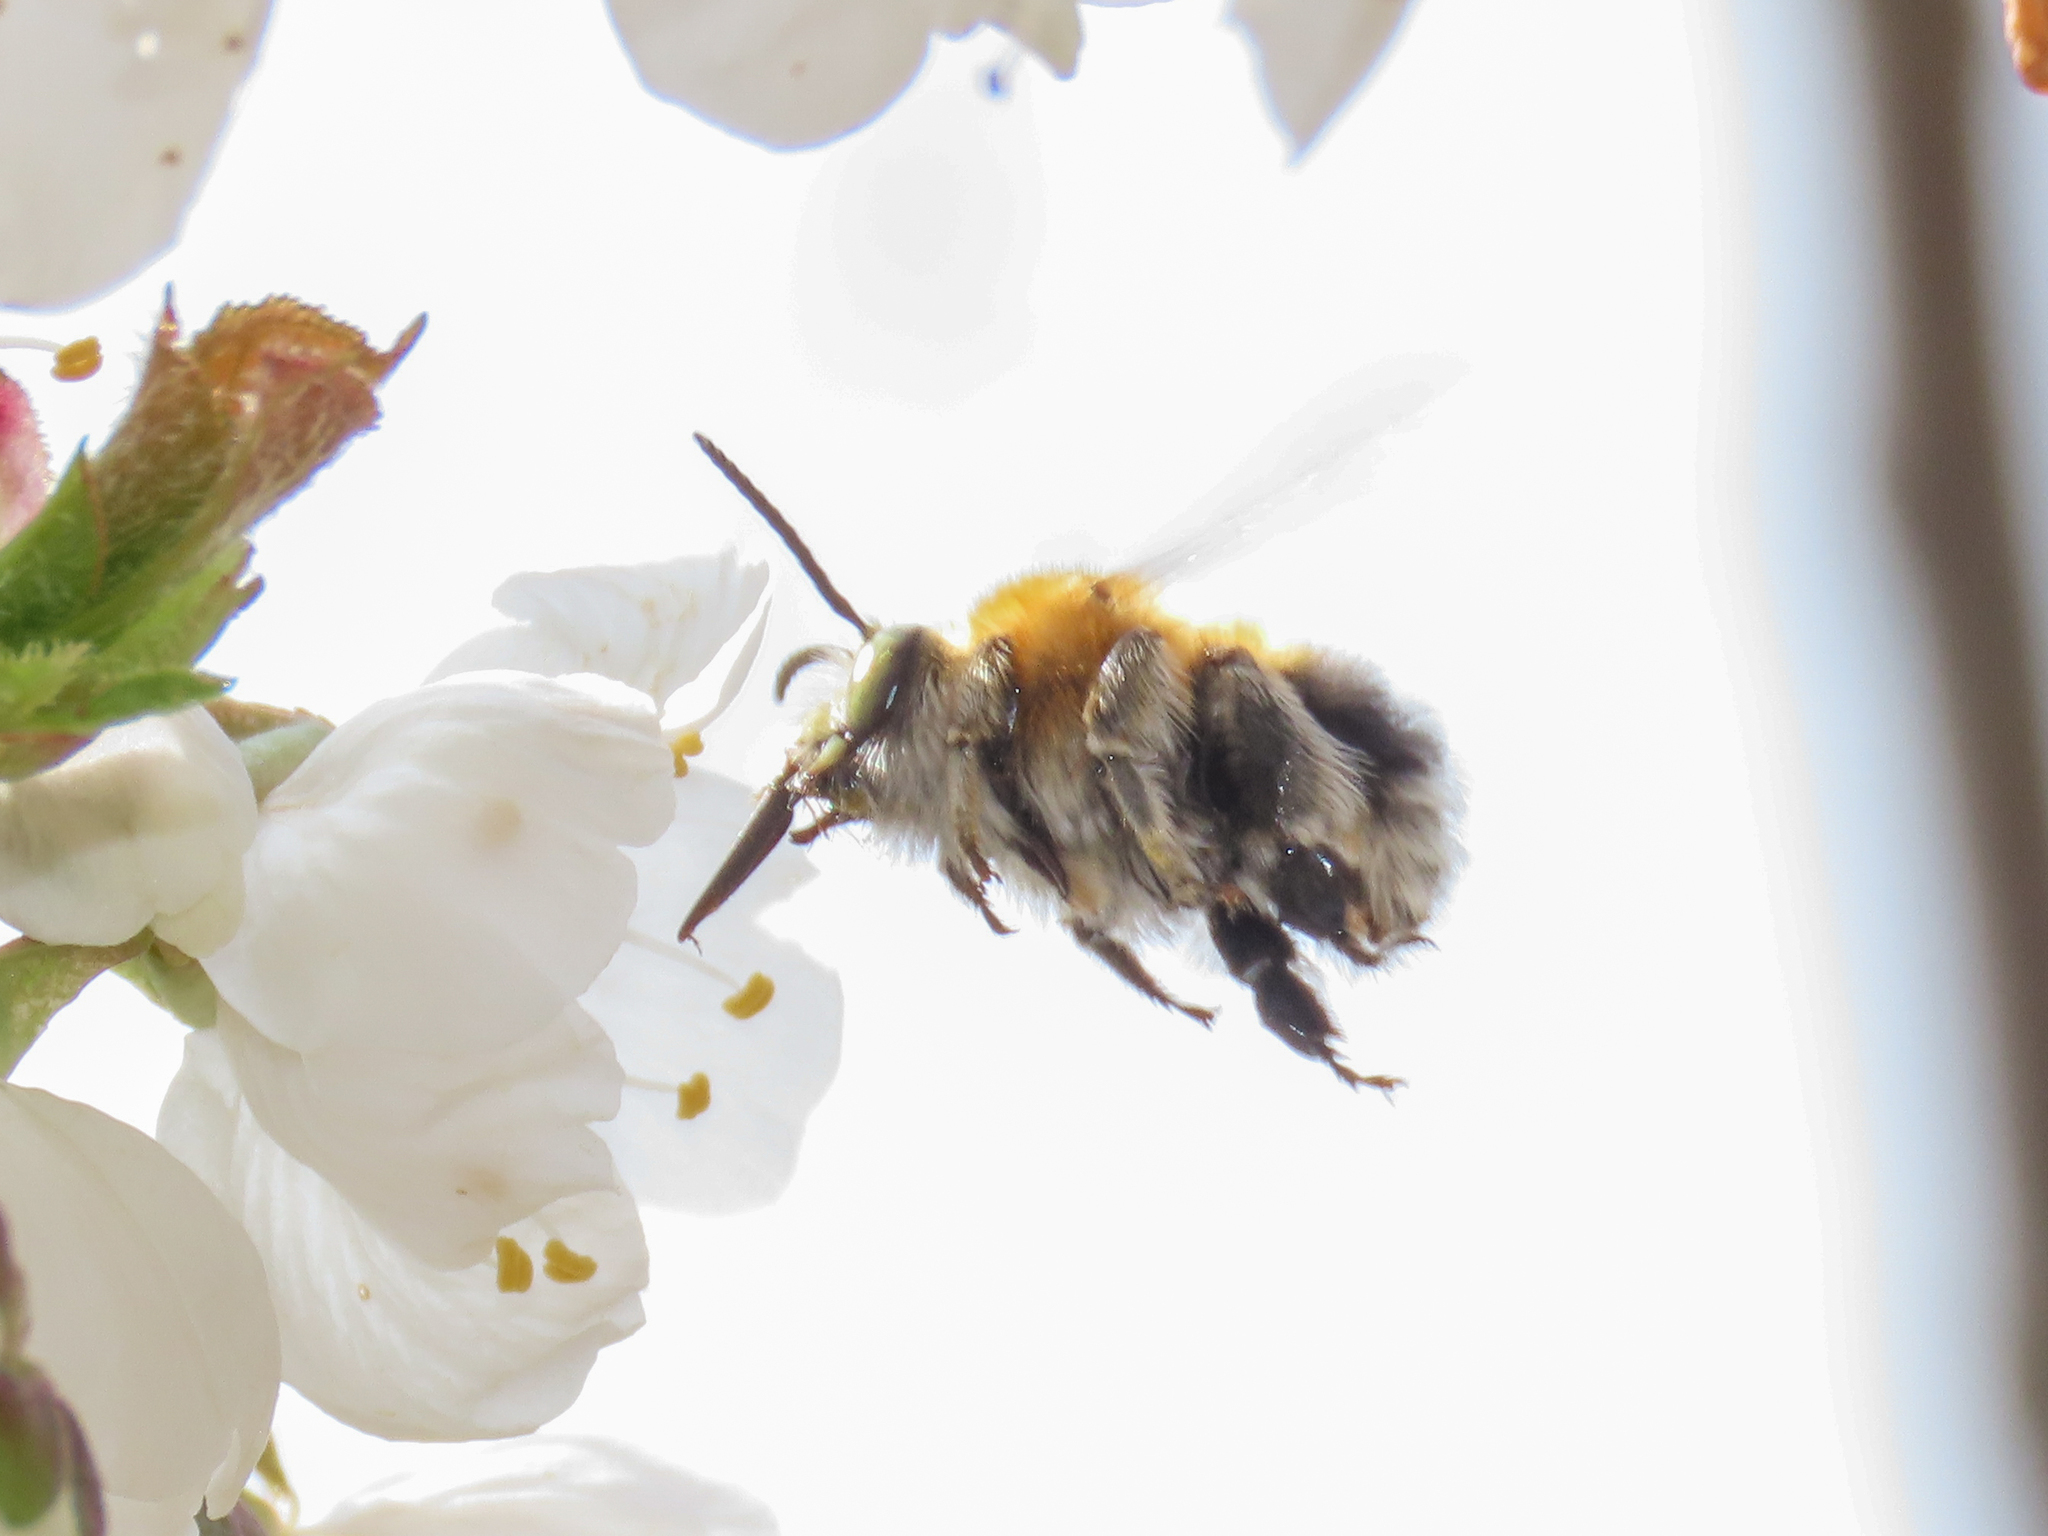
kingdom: Animalia
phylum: Arthropoda
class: Insecta
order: Hymenoptera
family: Apidae
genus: Habropoda
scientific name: Habropoda tarsata
